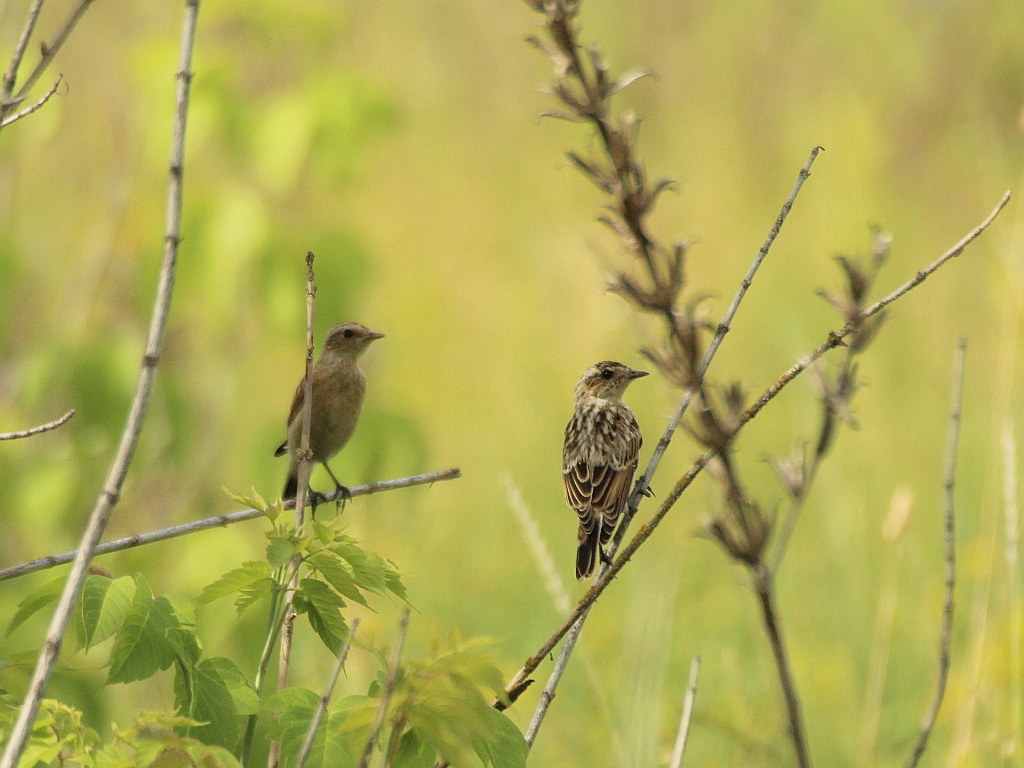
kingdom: Animalia
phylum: Chordata
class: Aves
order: Passeriformes
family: Muscicapidae
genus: Saxicola
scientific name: Saxicola rubetra
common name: Whinchat
